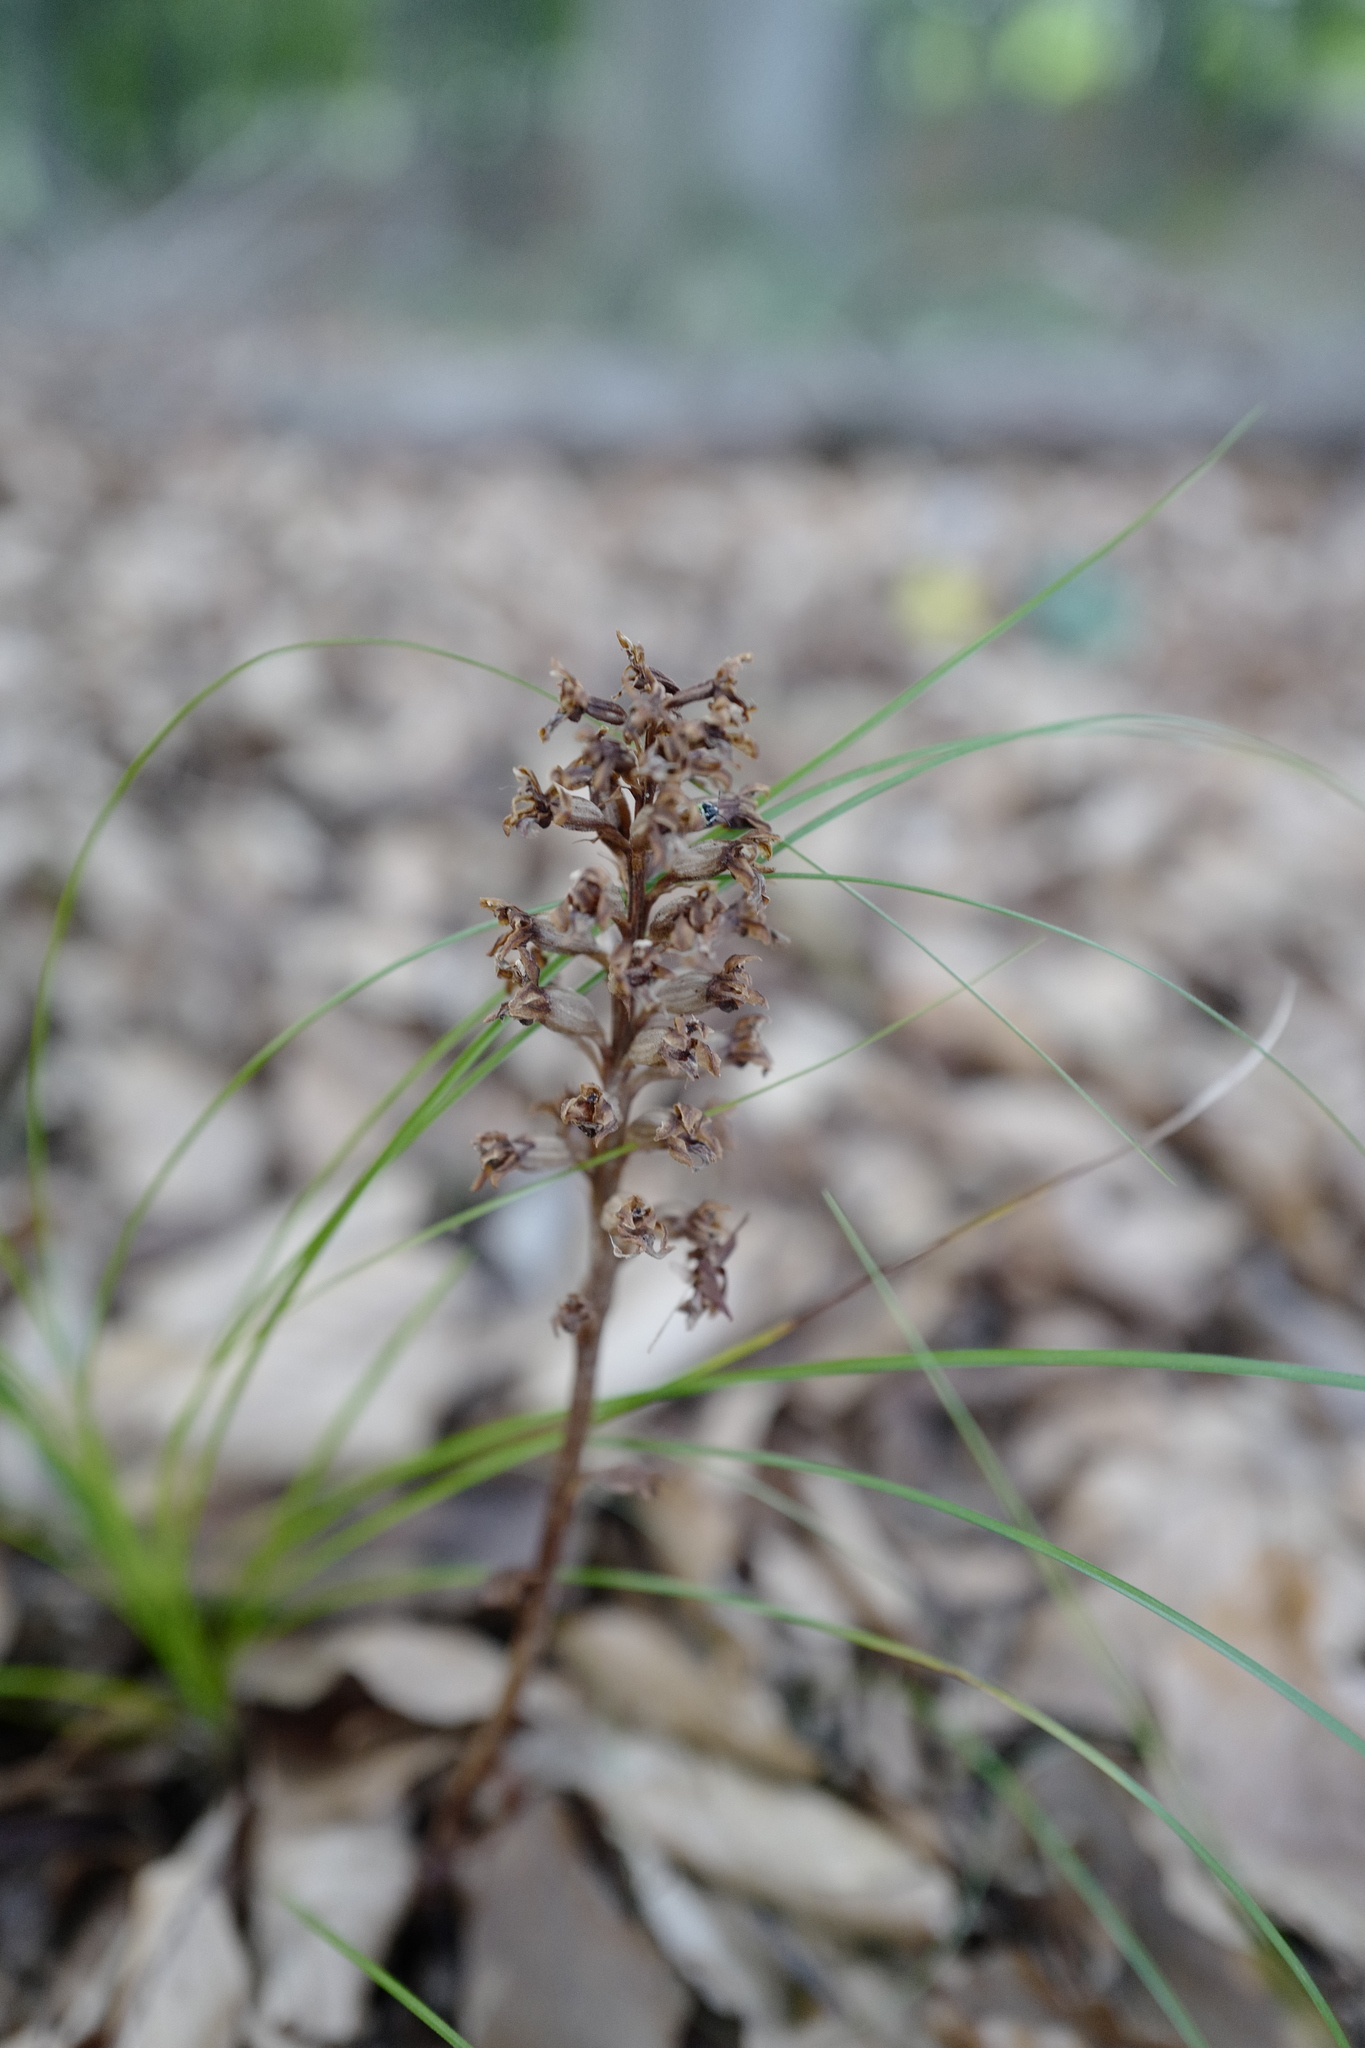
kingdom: Plantae
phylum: Tracheophyta
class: Liliopsida
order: Asparagales
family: Orchidaceae
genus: Neottia
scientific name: Neottia nidus-avis
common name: Bird's-nest orchid
